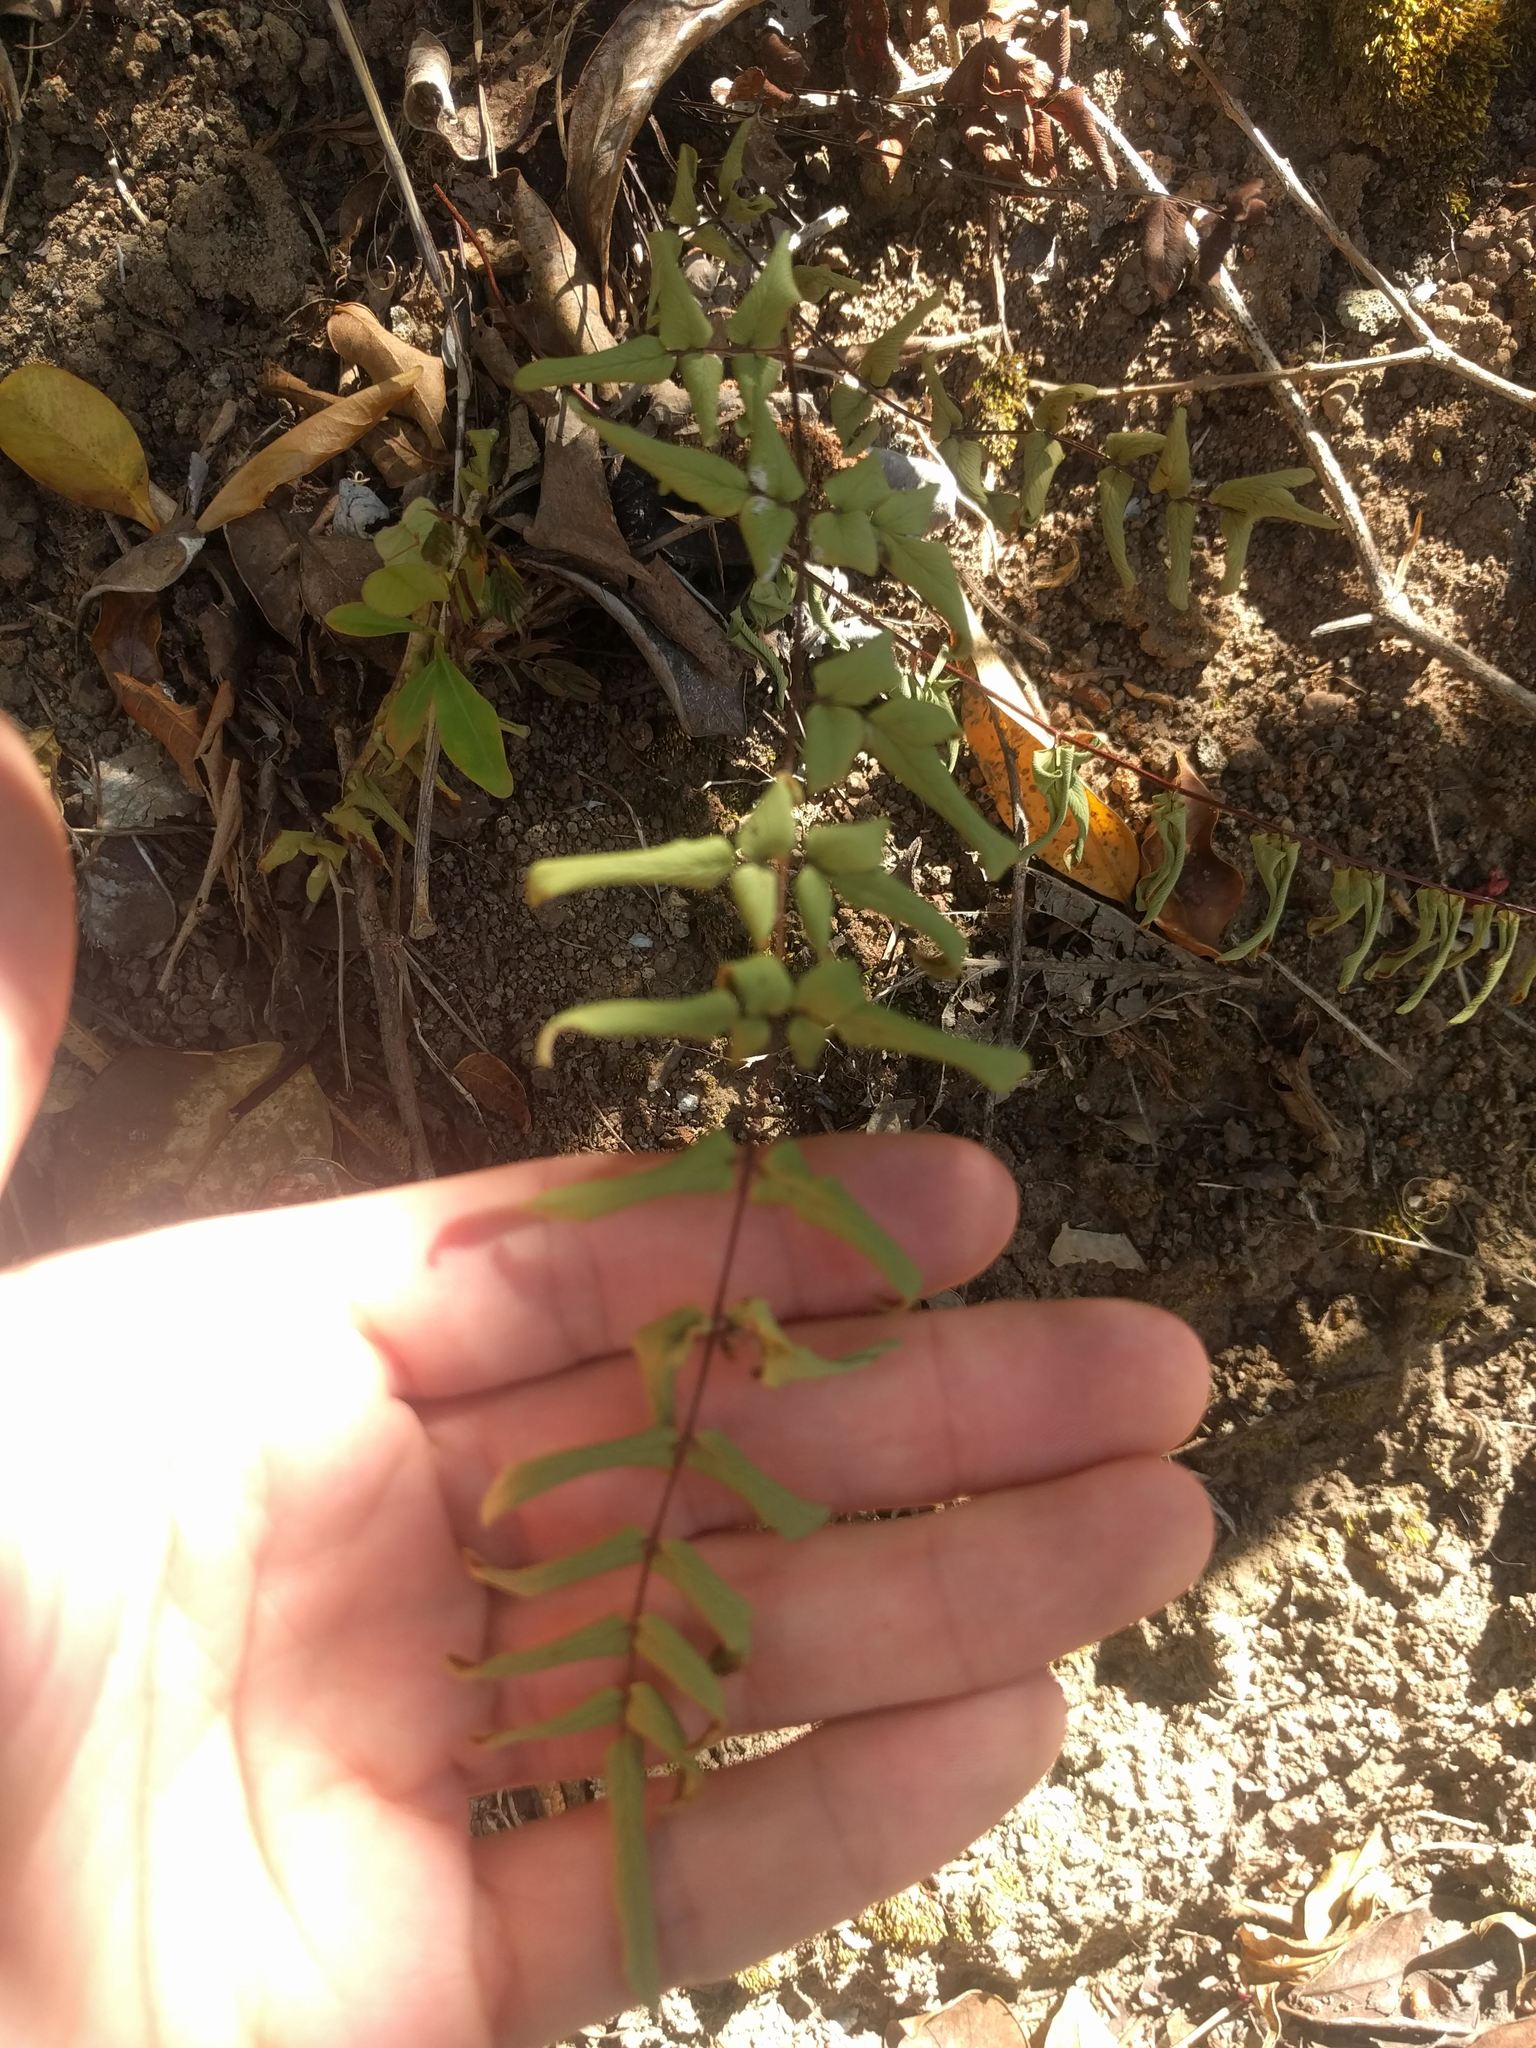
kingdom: Plantae
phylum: Tracheophyta
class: Polypodiopsida
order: Polypodiales
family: Pteridaceae
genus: Cheilanthes
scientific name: Cheilanthes viridis
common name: Green cliffbrake
